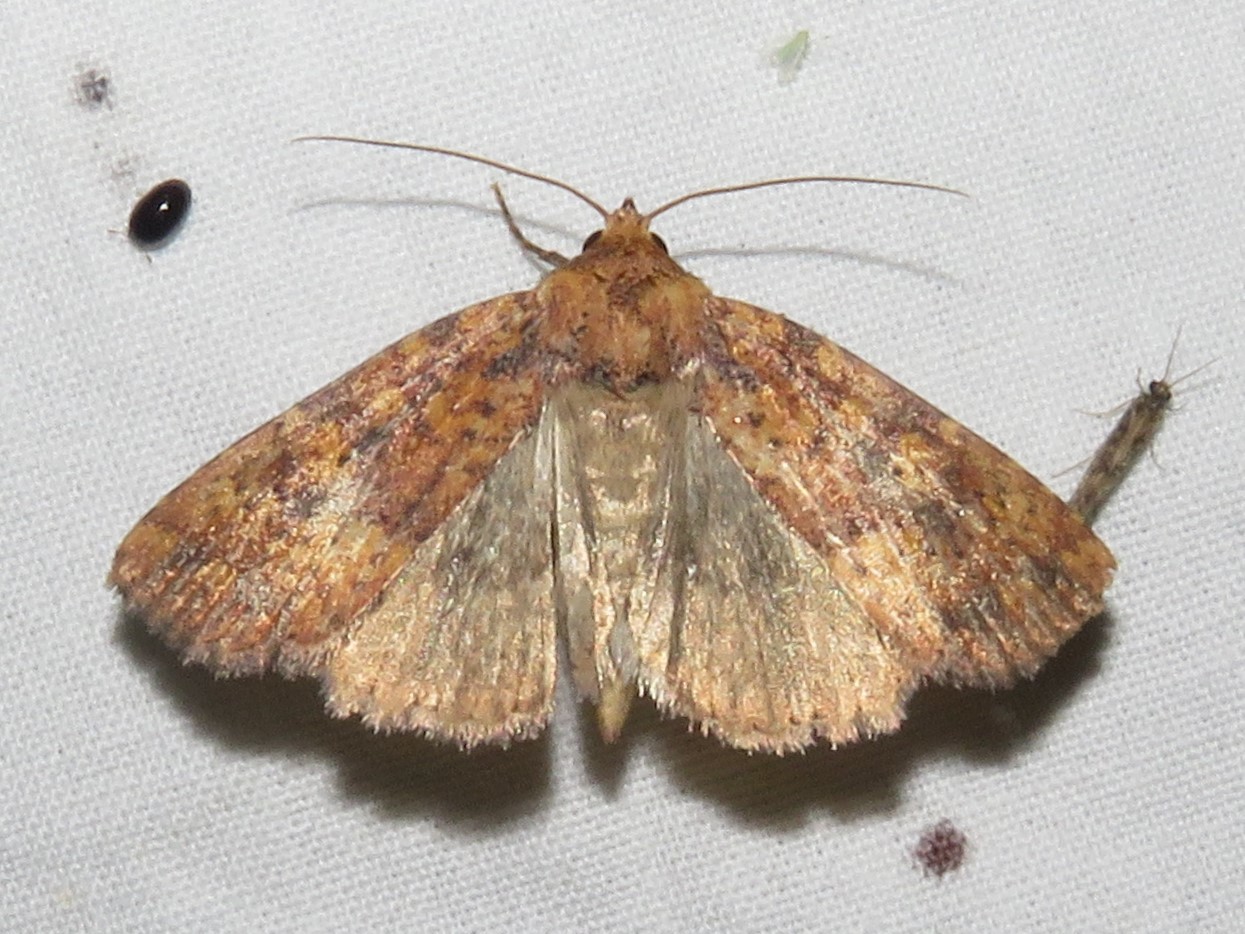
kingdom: Animalia
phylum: Arthropoda
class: Insecta
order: Lepidoptera
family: Noctuidae
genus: Perigea
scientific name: Perigea xanthioides
